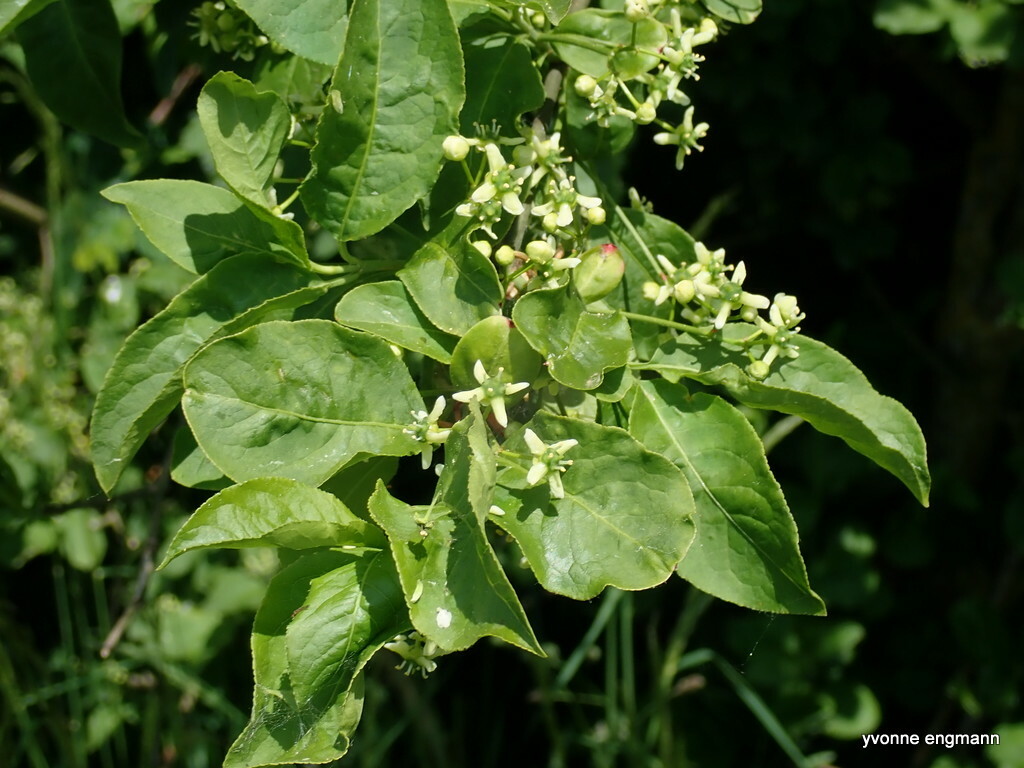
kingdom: Plantae
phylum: Tracheophyta
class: Magnoliopsida
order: Celastrales
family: Celastraceae
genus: Euonymus
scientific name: Euonymus europaeus
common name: Spindle
